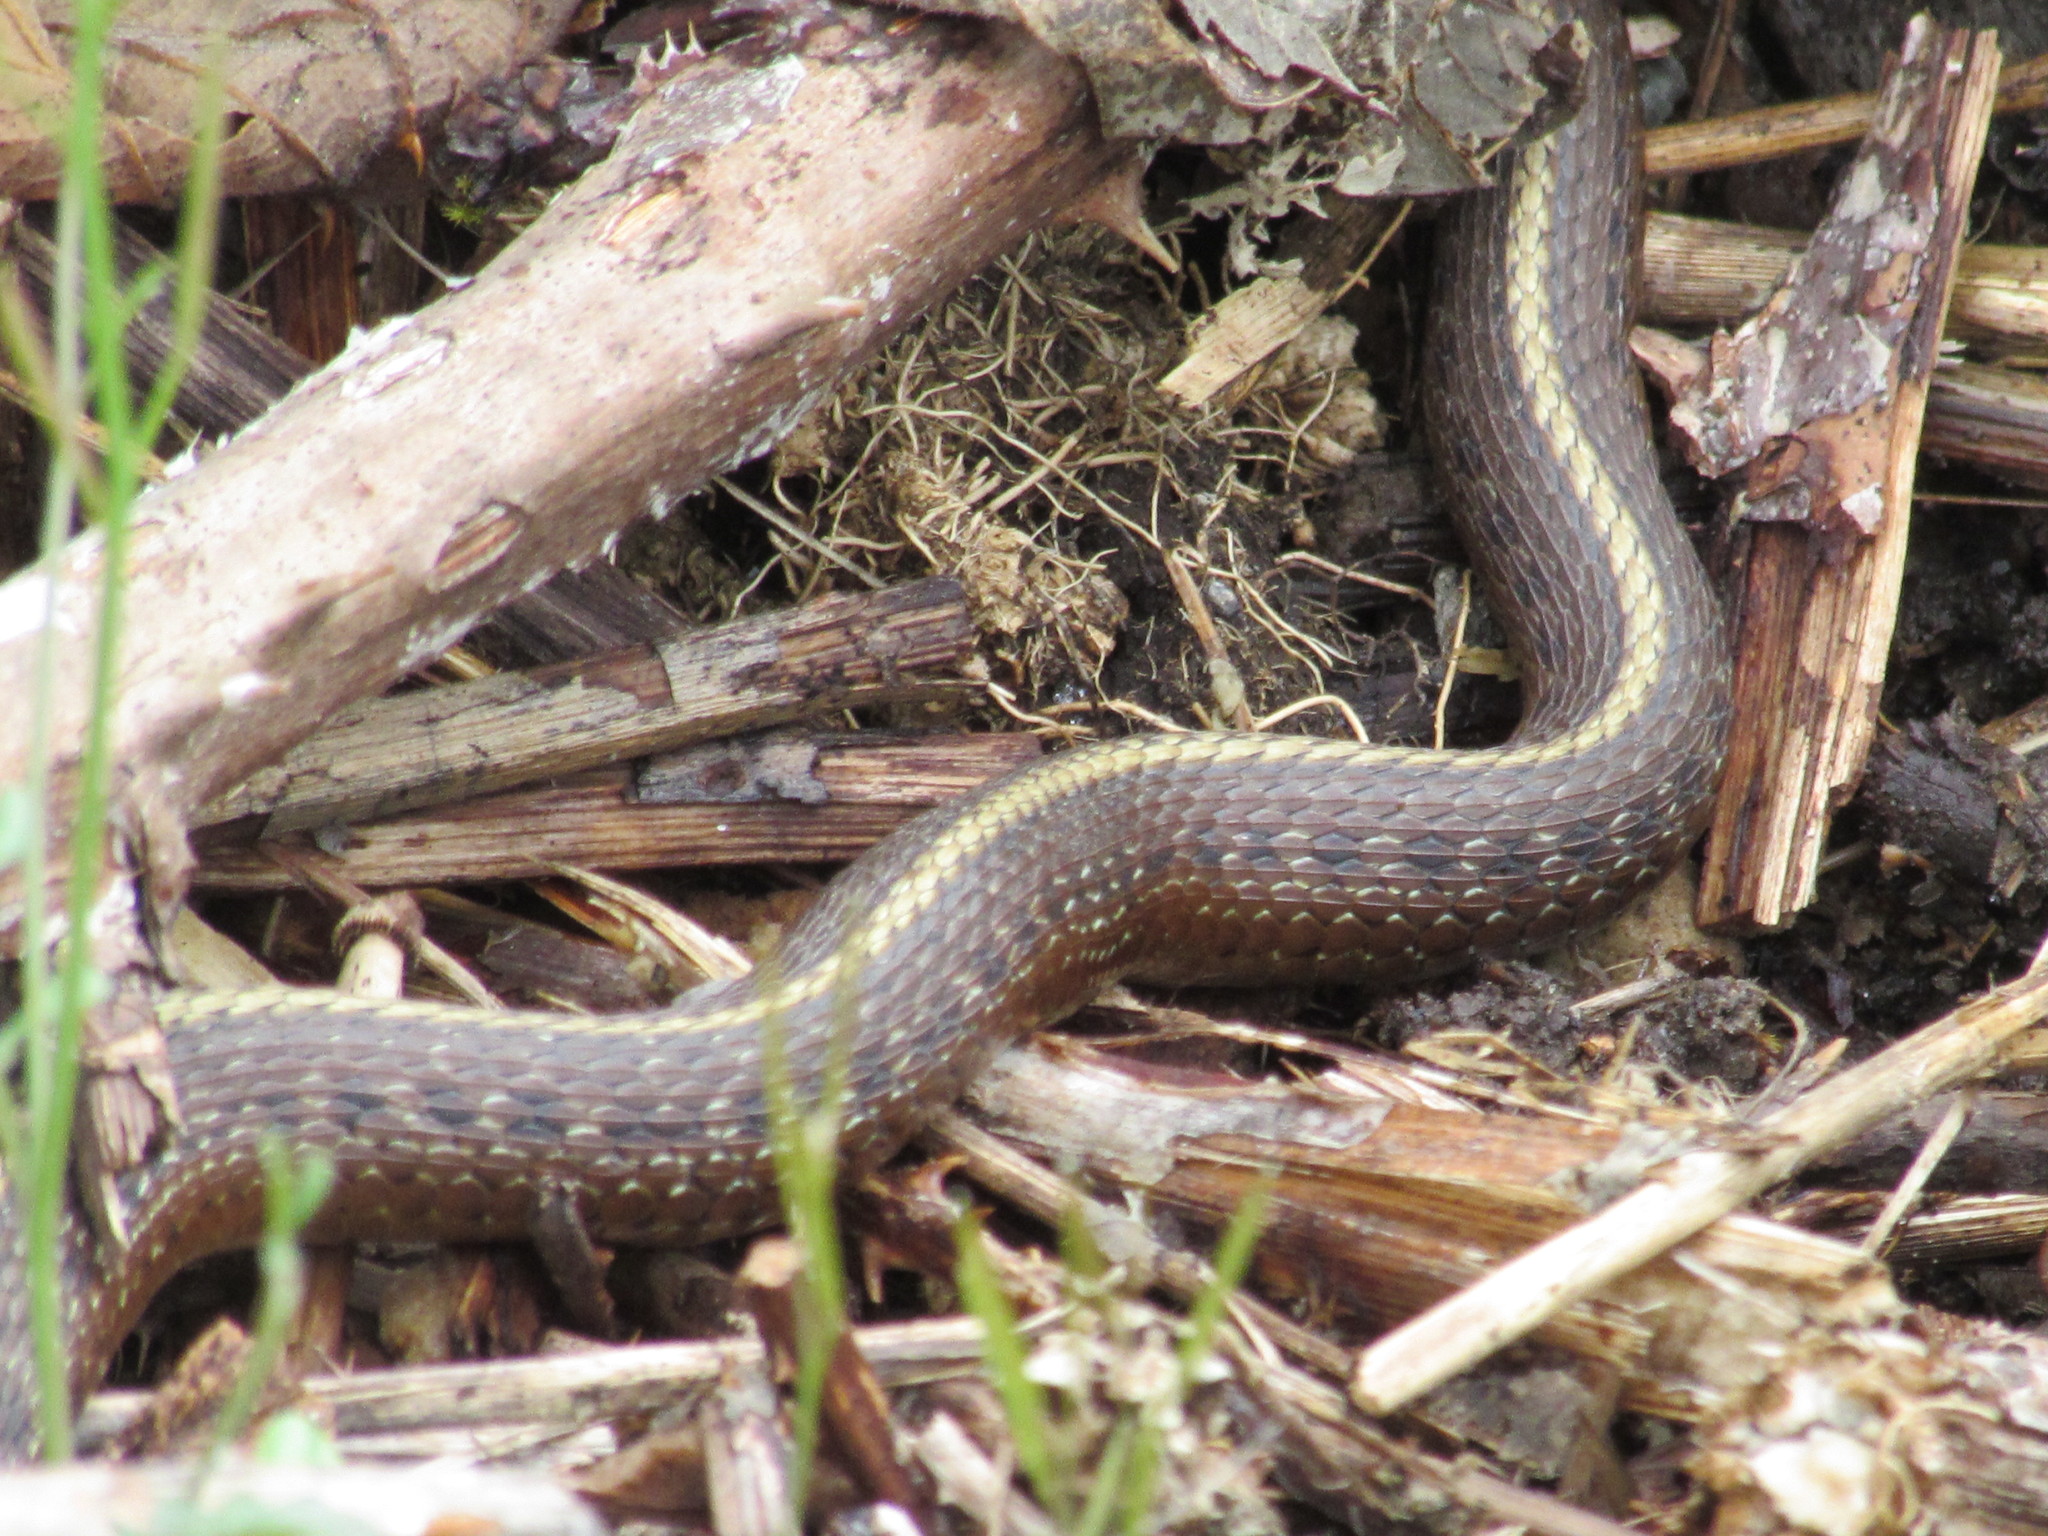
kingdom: Animalia
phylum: Chordata
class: Squamata
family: Colubridae
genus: Thamnophis
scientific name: Thamnophis ordinoides
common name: Northwestern garter snake
